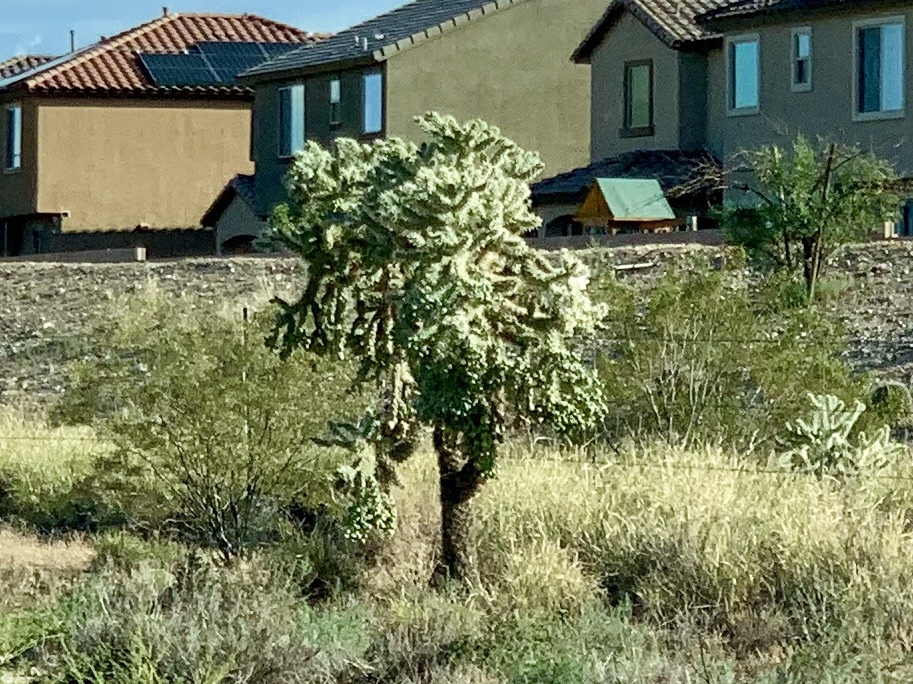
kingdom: Plantae
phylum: Tracheophyta
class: Magnoliopsida
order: Caryophyllales
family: Cactaceae
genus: Cylindropuntia
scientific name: Cylindropuntia fulgida
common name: Jumping cholla
